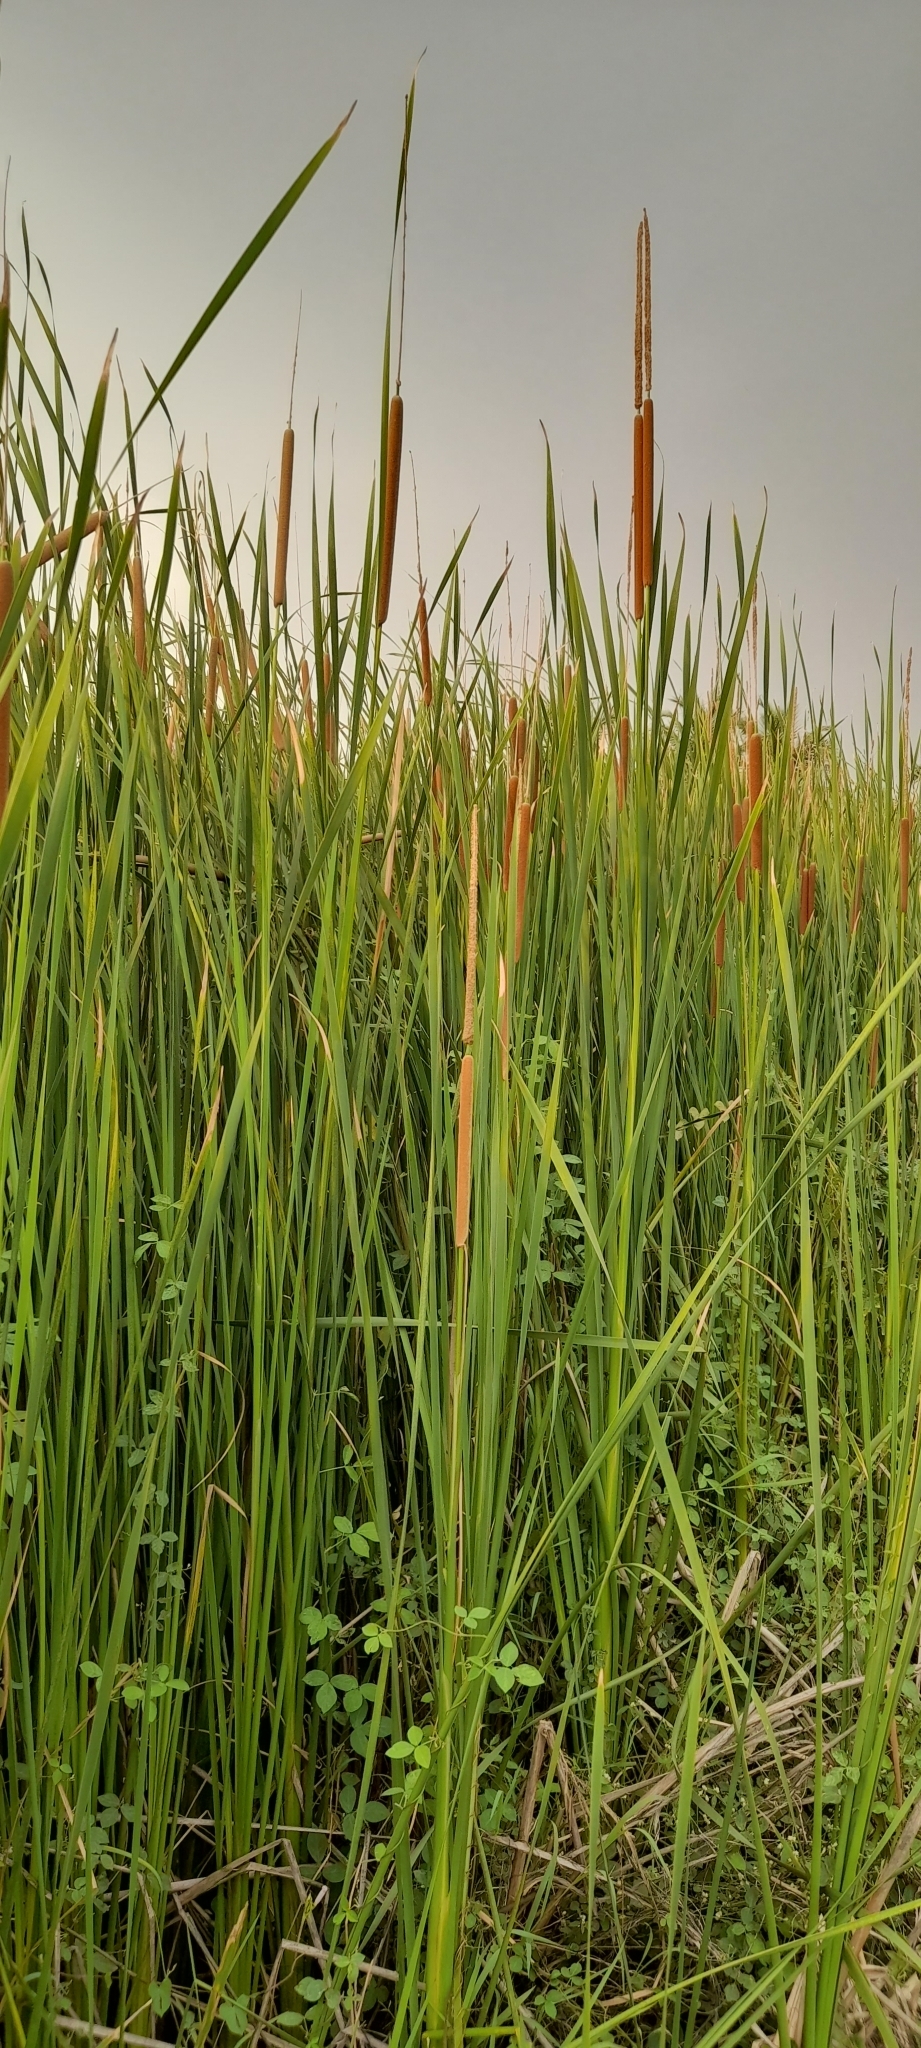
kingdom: Plantae
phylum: Tracheophyta
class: Liliopsida
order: Poales
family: Typhaceae
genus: Typha
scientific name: Typha domingensis
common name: Southern cattail
